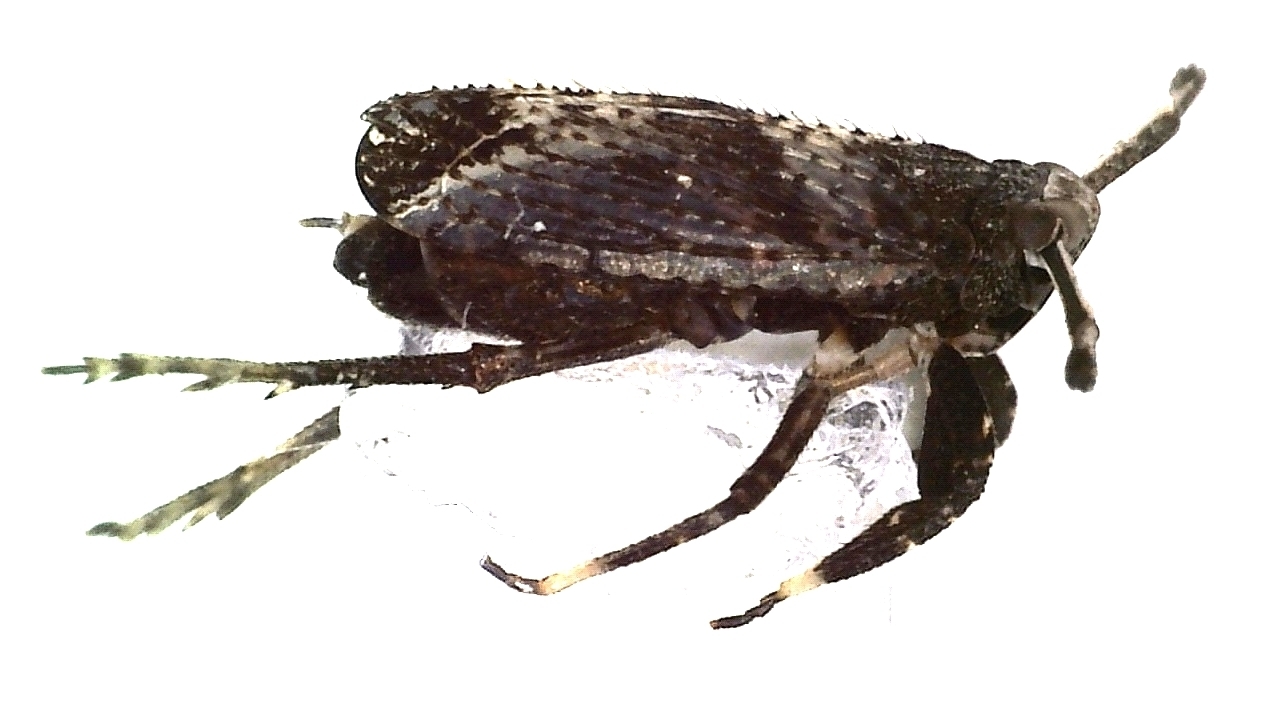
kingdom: Animalia
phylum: Arthropoda
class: Insecta
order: Hemiptera
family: Delphacidae
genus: Asiraca
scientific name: Asiraca clavicornis
